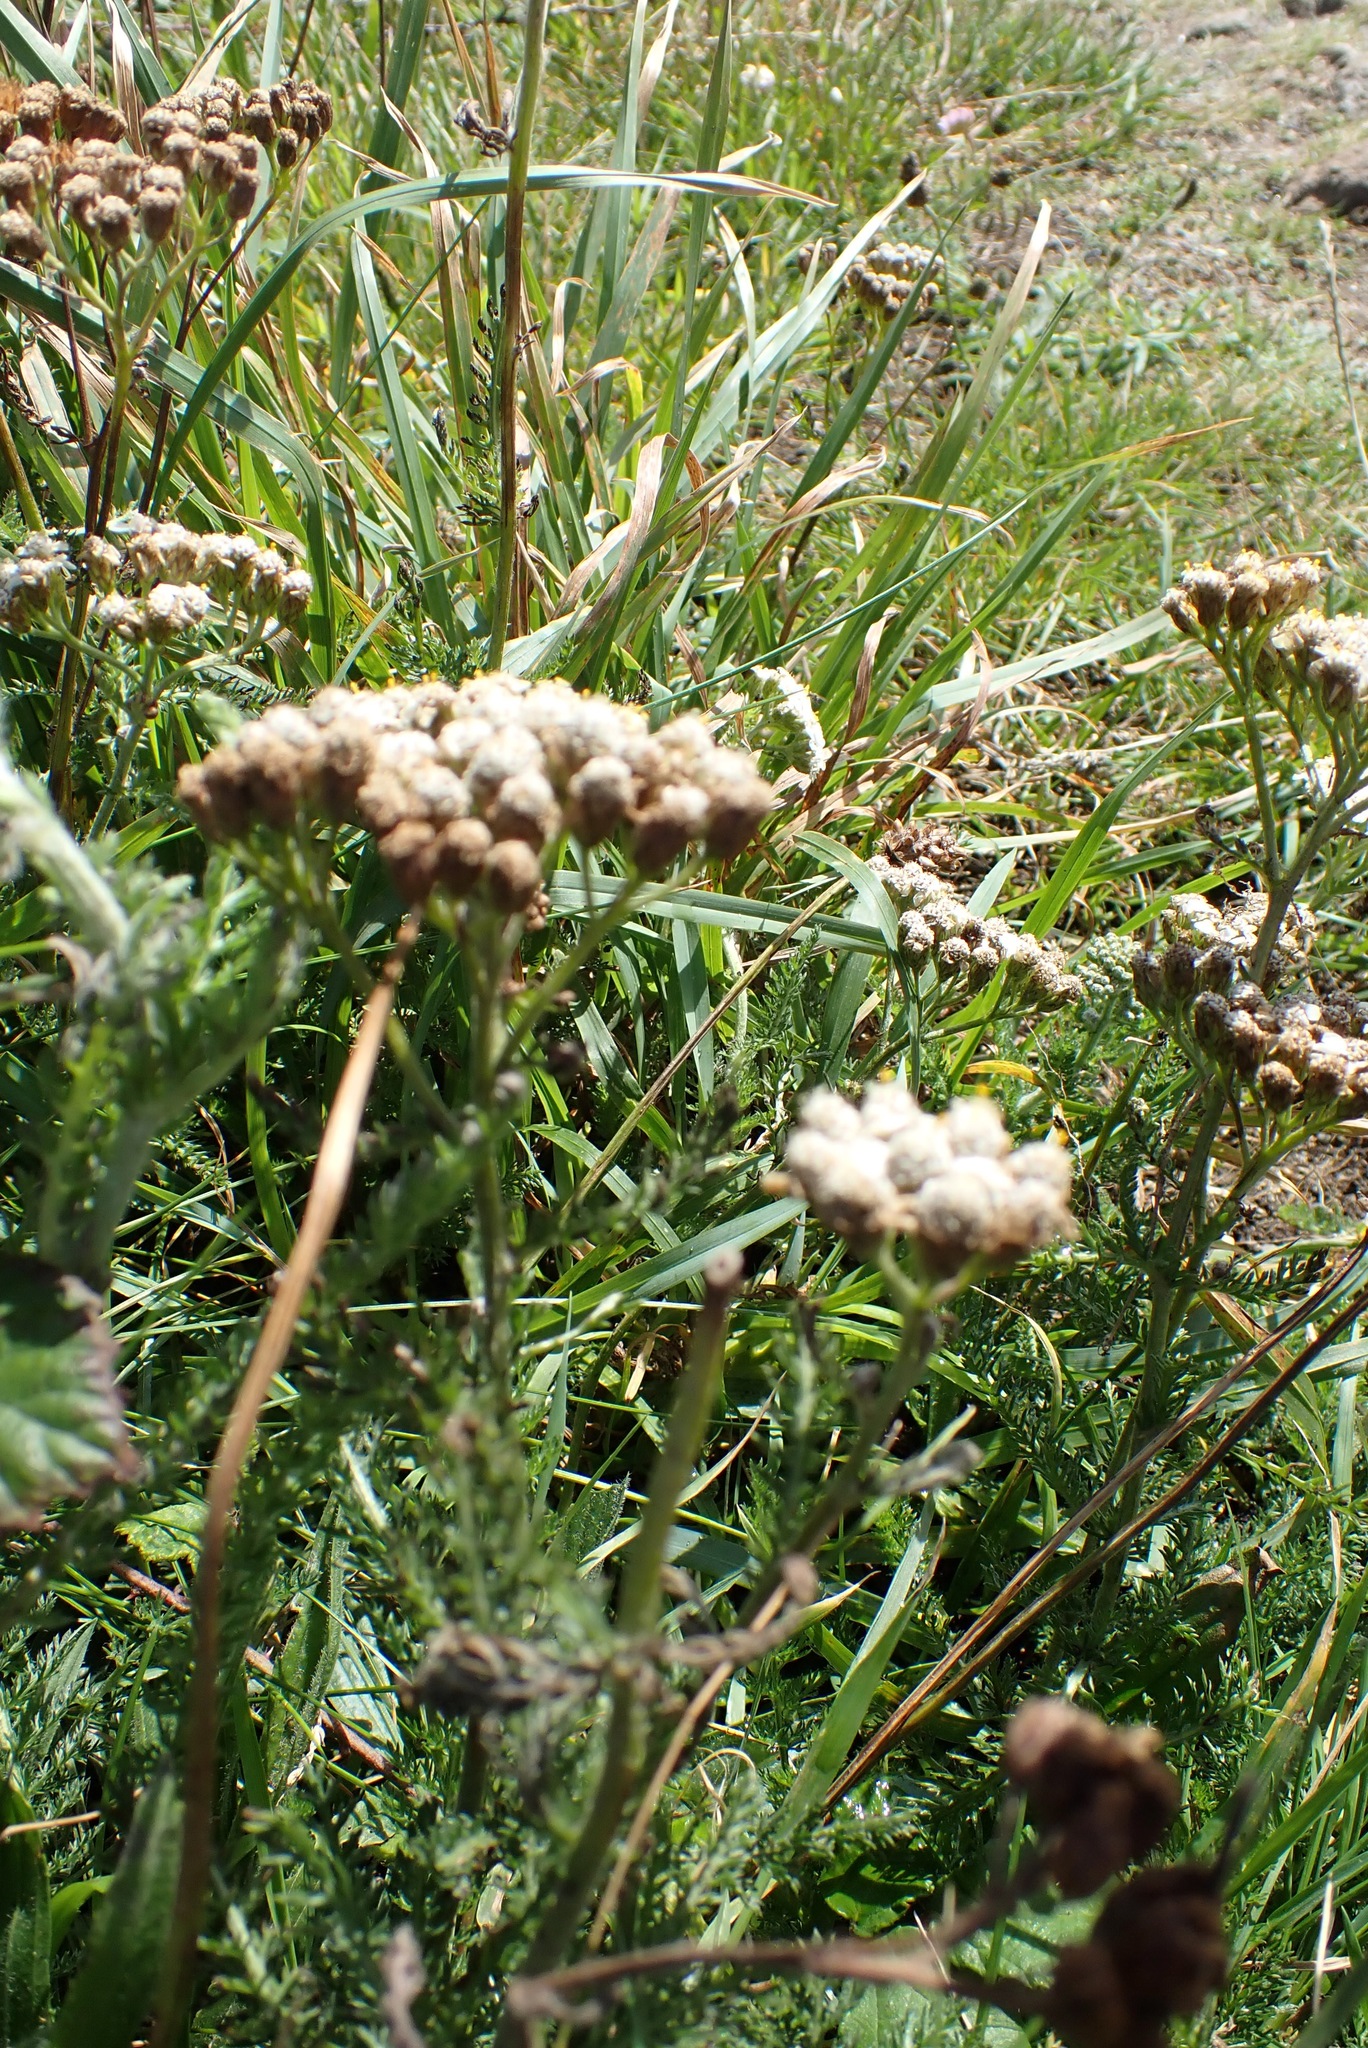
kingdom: Plantae
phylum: Tracheophyta
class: Magnoliopsida
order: Asterales
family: Asteraceae
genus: Achillea
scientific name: Achillea millefolium
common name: Yarrow
